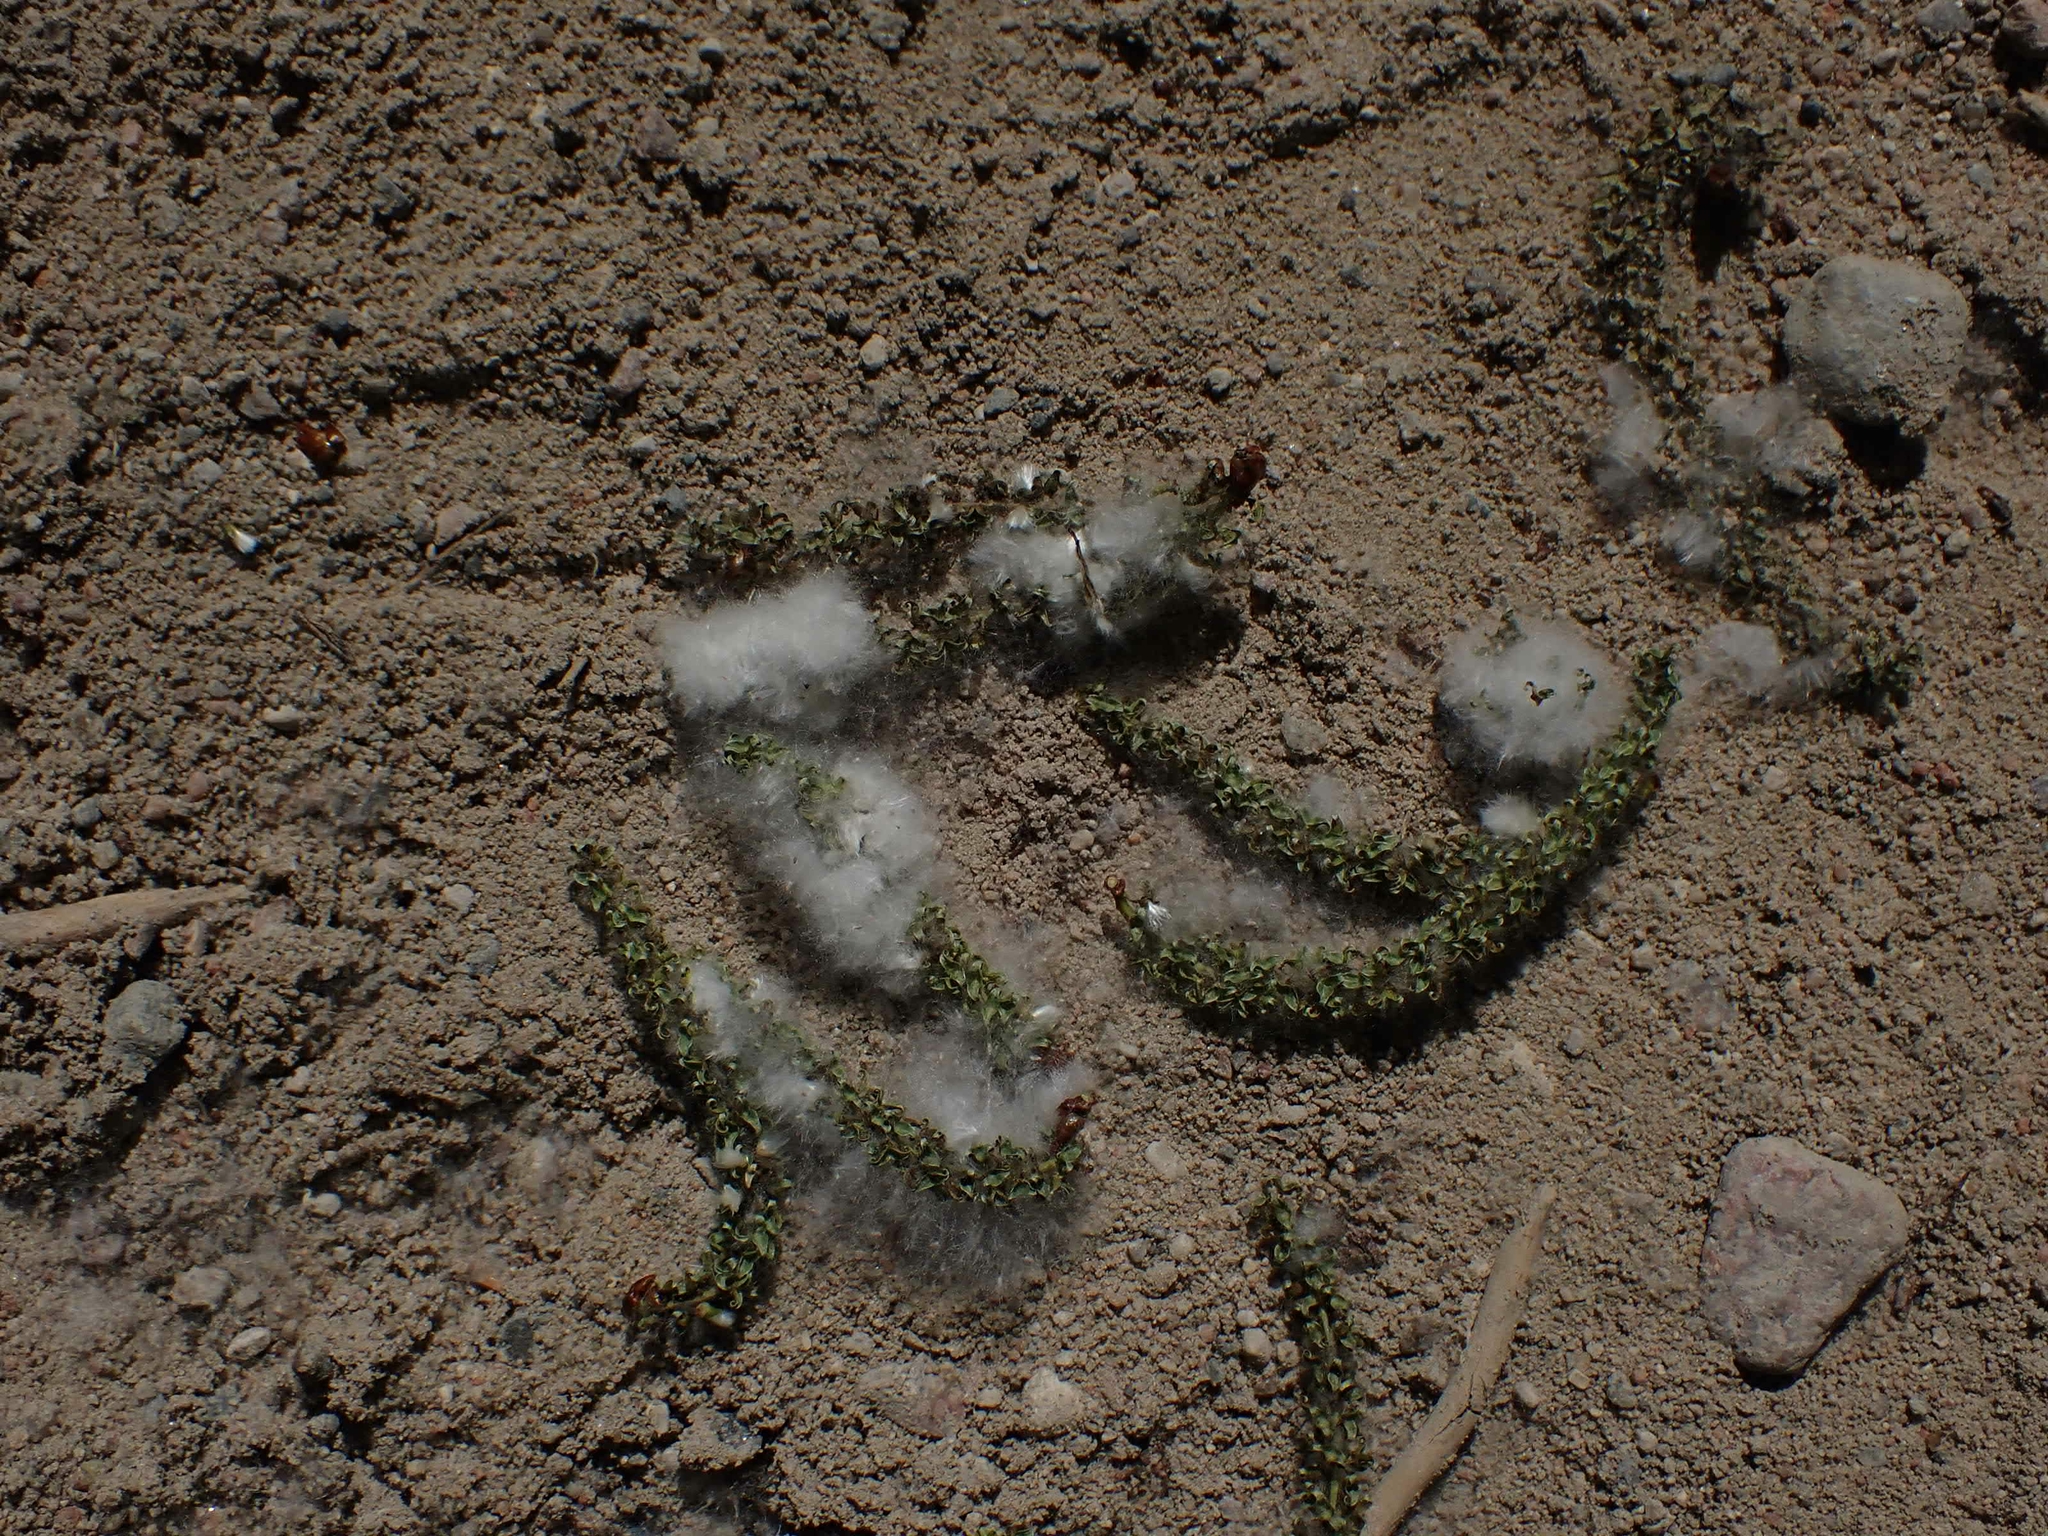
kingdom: Plantae
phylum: Tracheophyta
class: Magnoliopsida
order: Malpighiales
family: Salicaceae
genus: Populus
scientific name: Populus deltoides
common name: Eastern cottonwood
